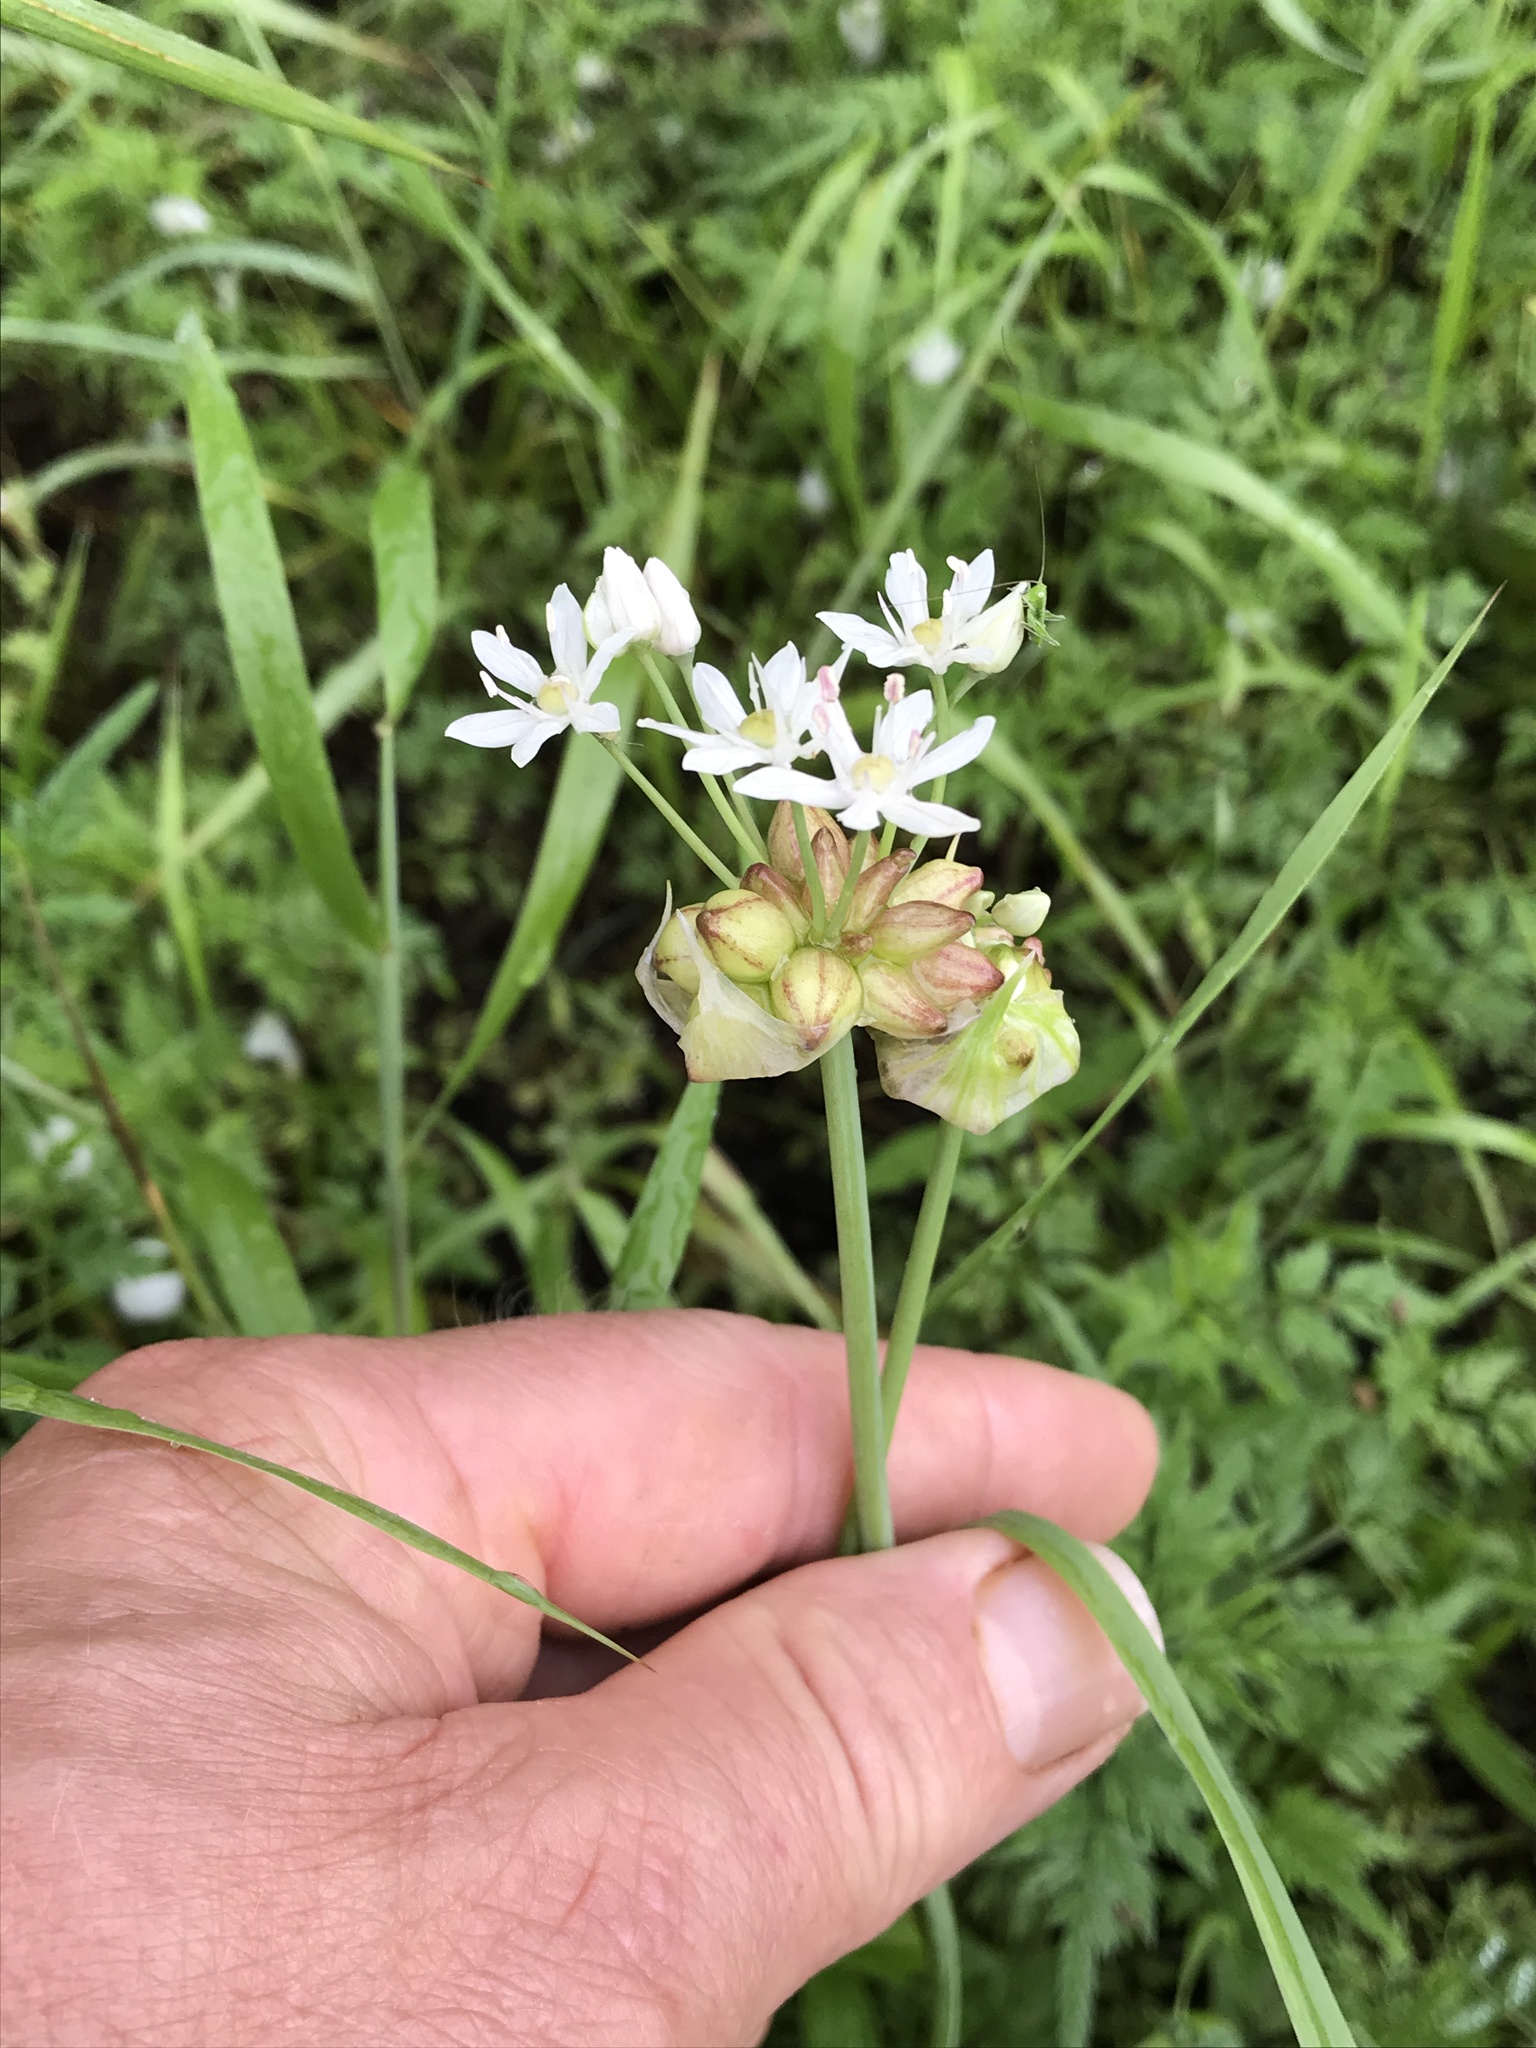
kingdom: Plantae
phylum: Tracheophyta
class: Liliopsida
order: Asparagales
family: Amaryllidaceae
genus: Allium
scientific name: Allium canadense
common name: Meadow garlic
